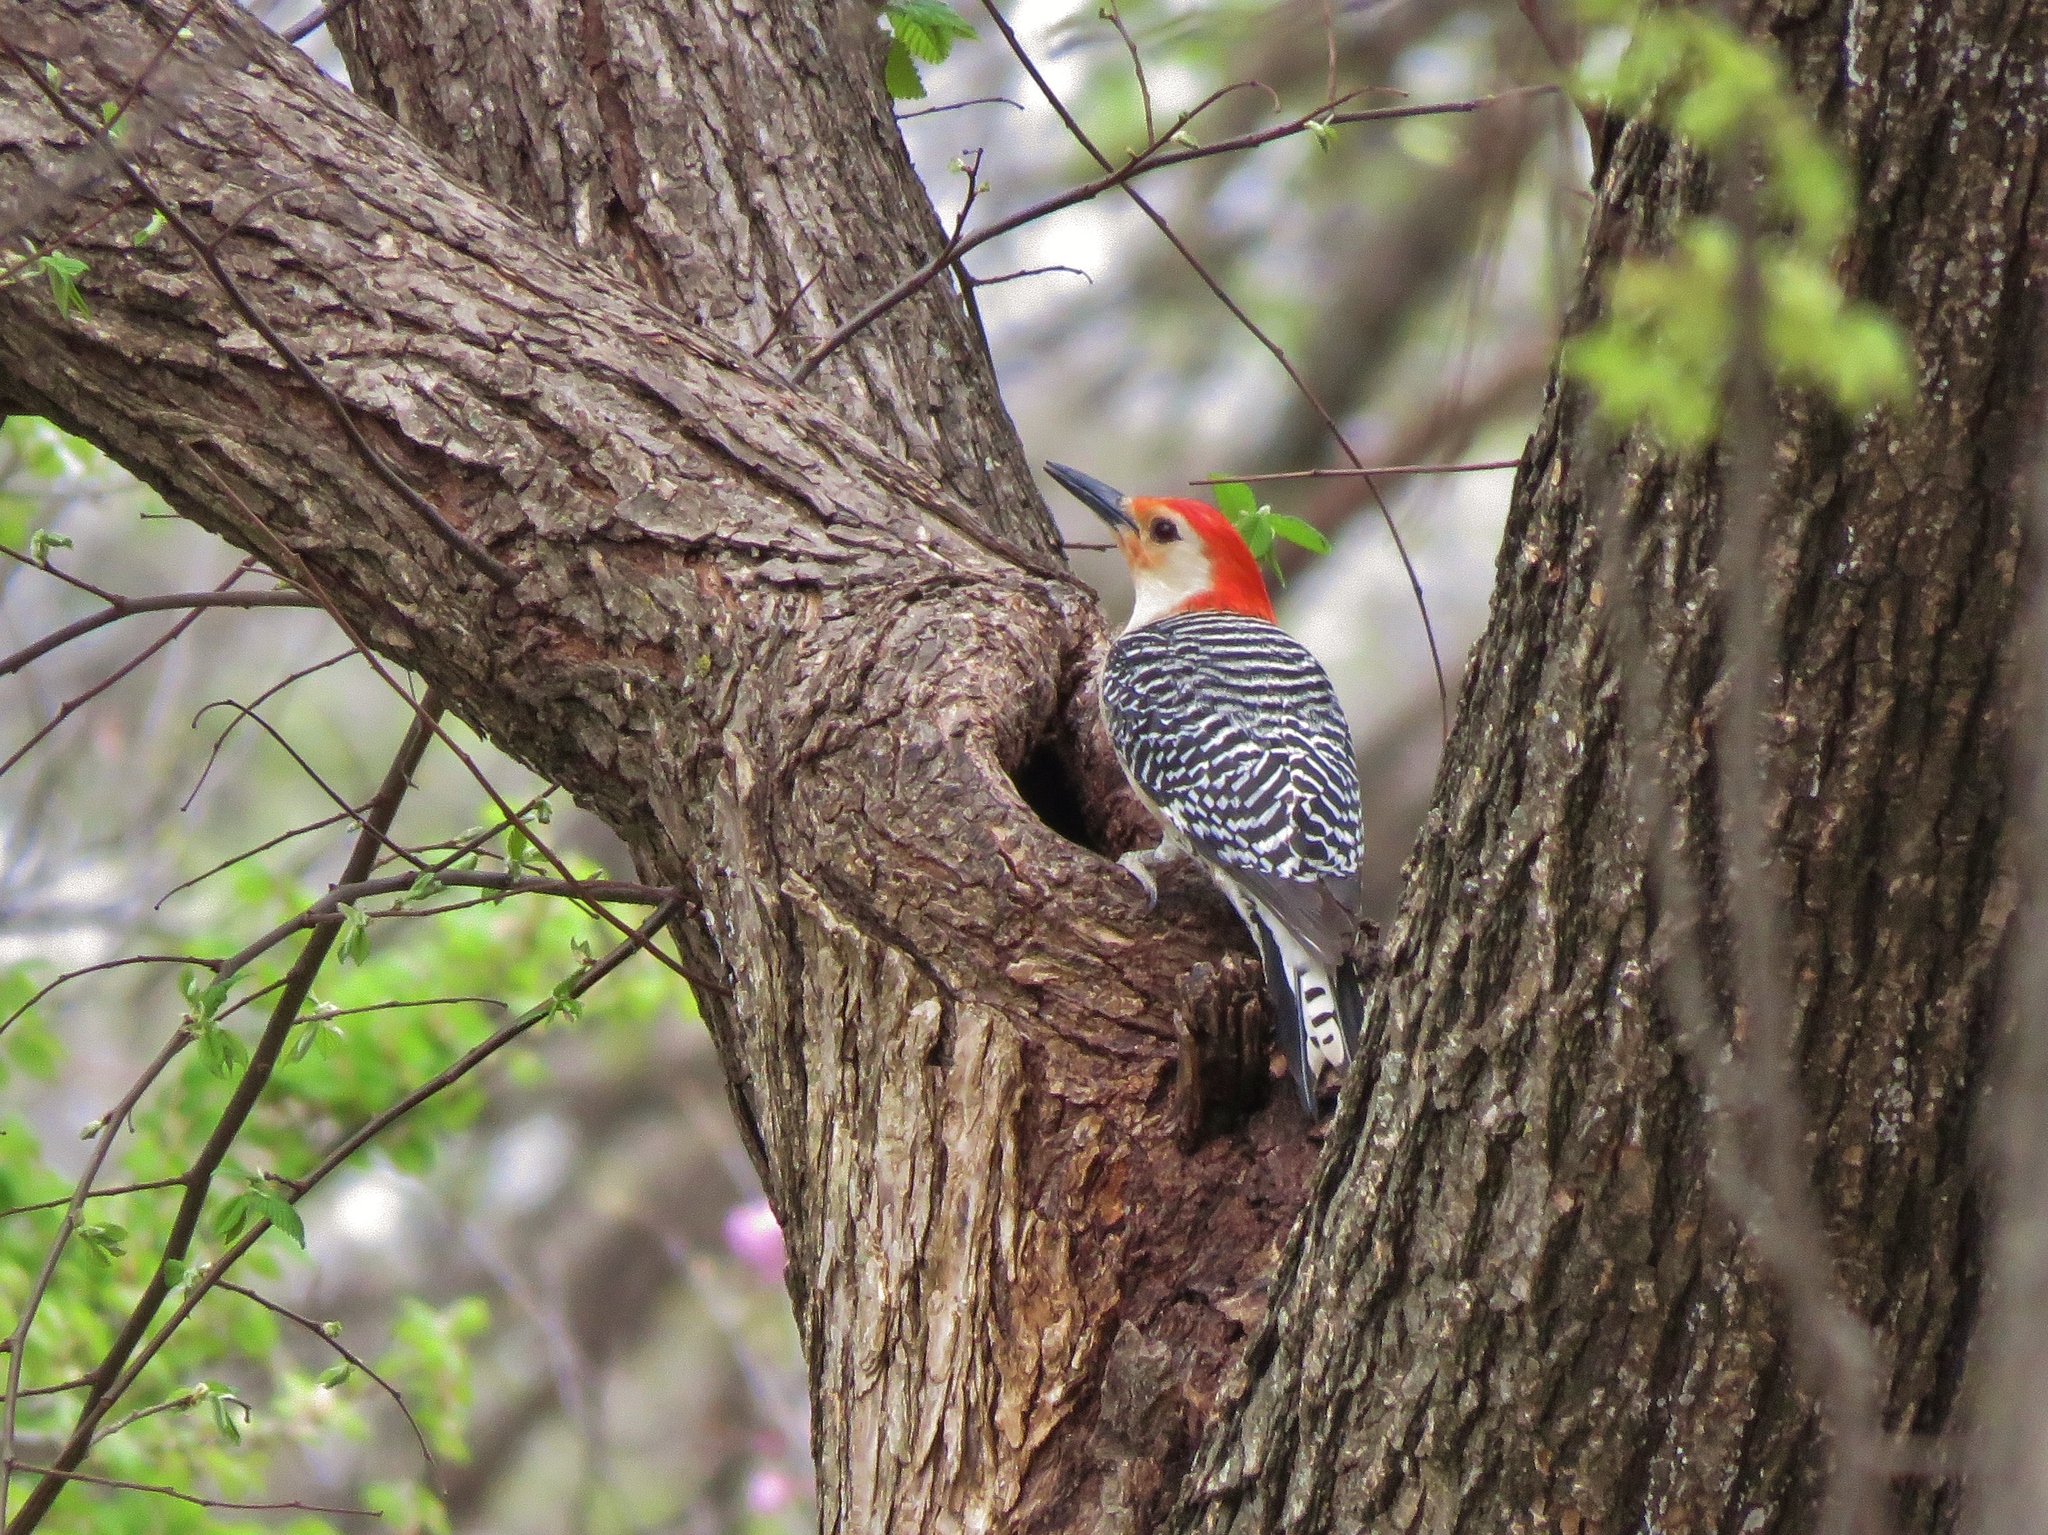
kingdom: Animalia
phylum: Chordata
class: Aves
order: Piciformes
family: Picidae
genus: Melanerpes
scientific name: Melanerpes carolinus
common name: Red-bellied woodpecker
